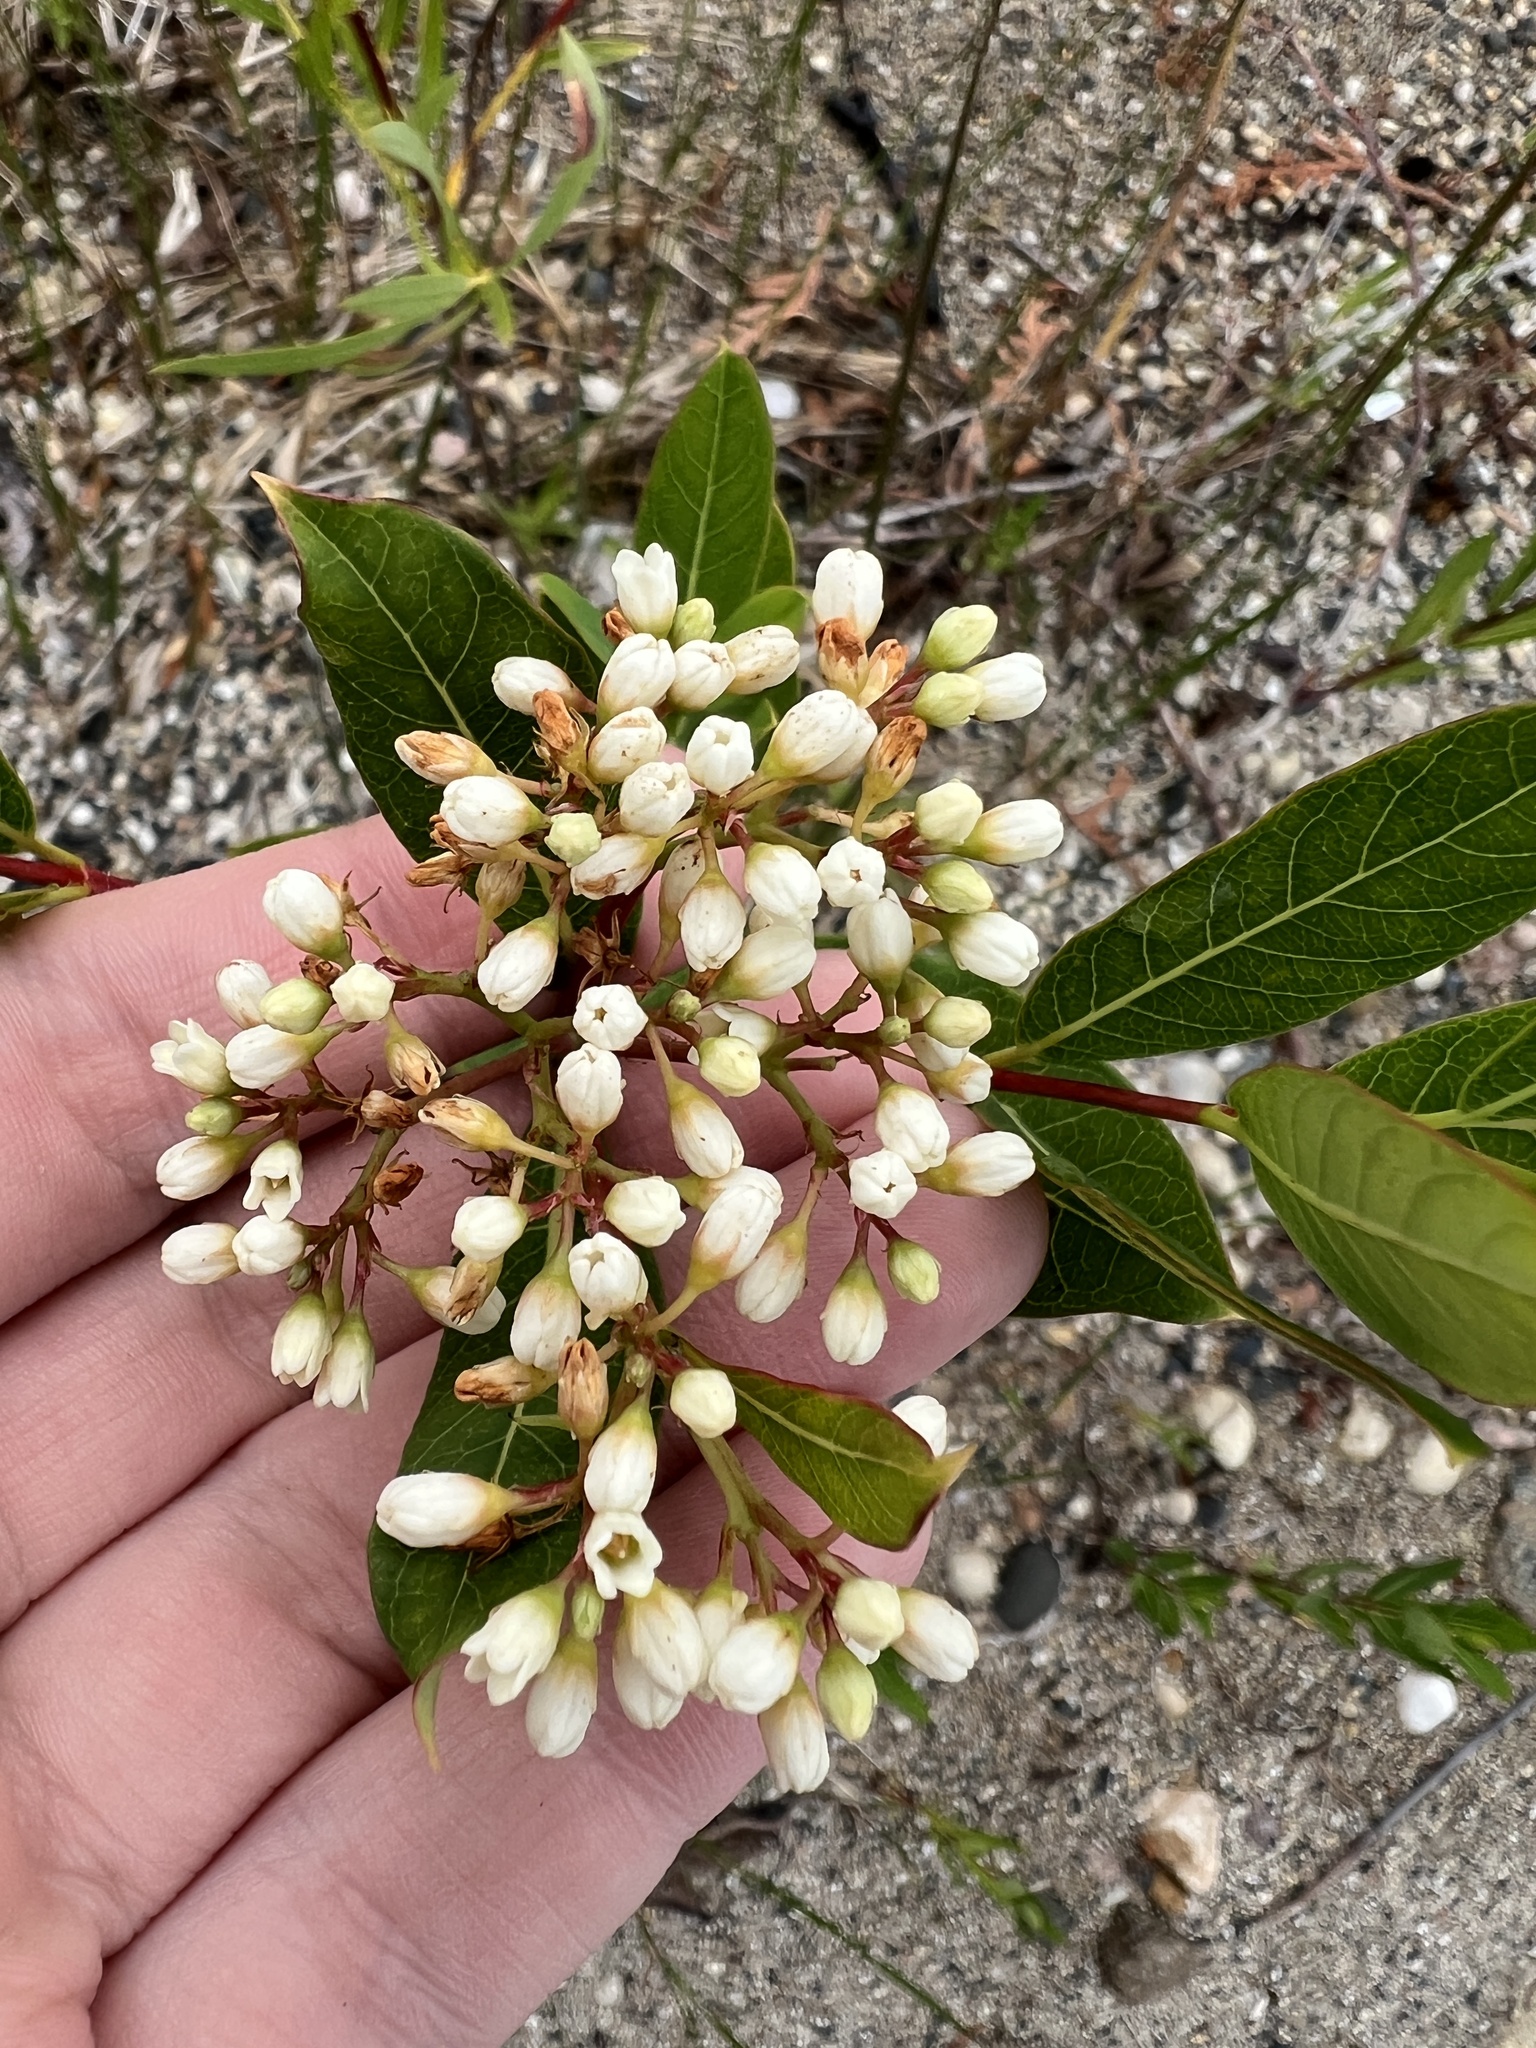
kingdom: Plantae
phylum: Tracheophyta
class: Magnoliopsida
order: Gentianales
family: Apocynaceae
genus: Apocynum
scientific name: Apocynum cannabinum
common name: Hemp dogbane
